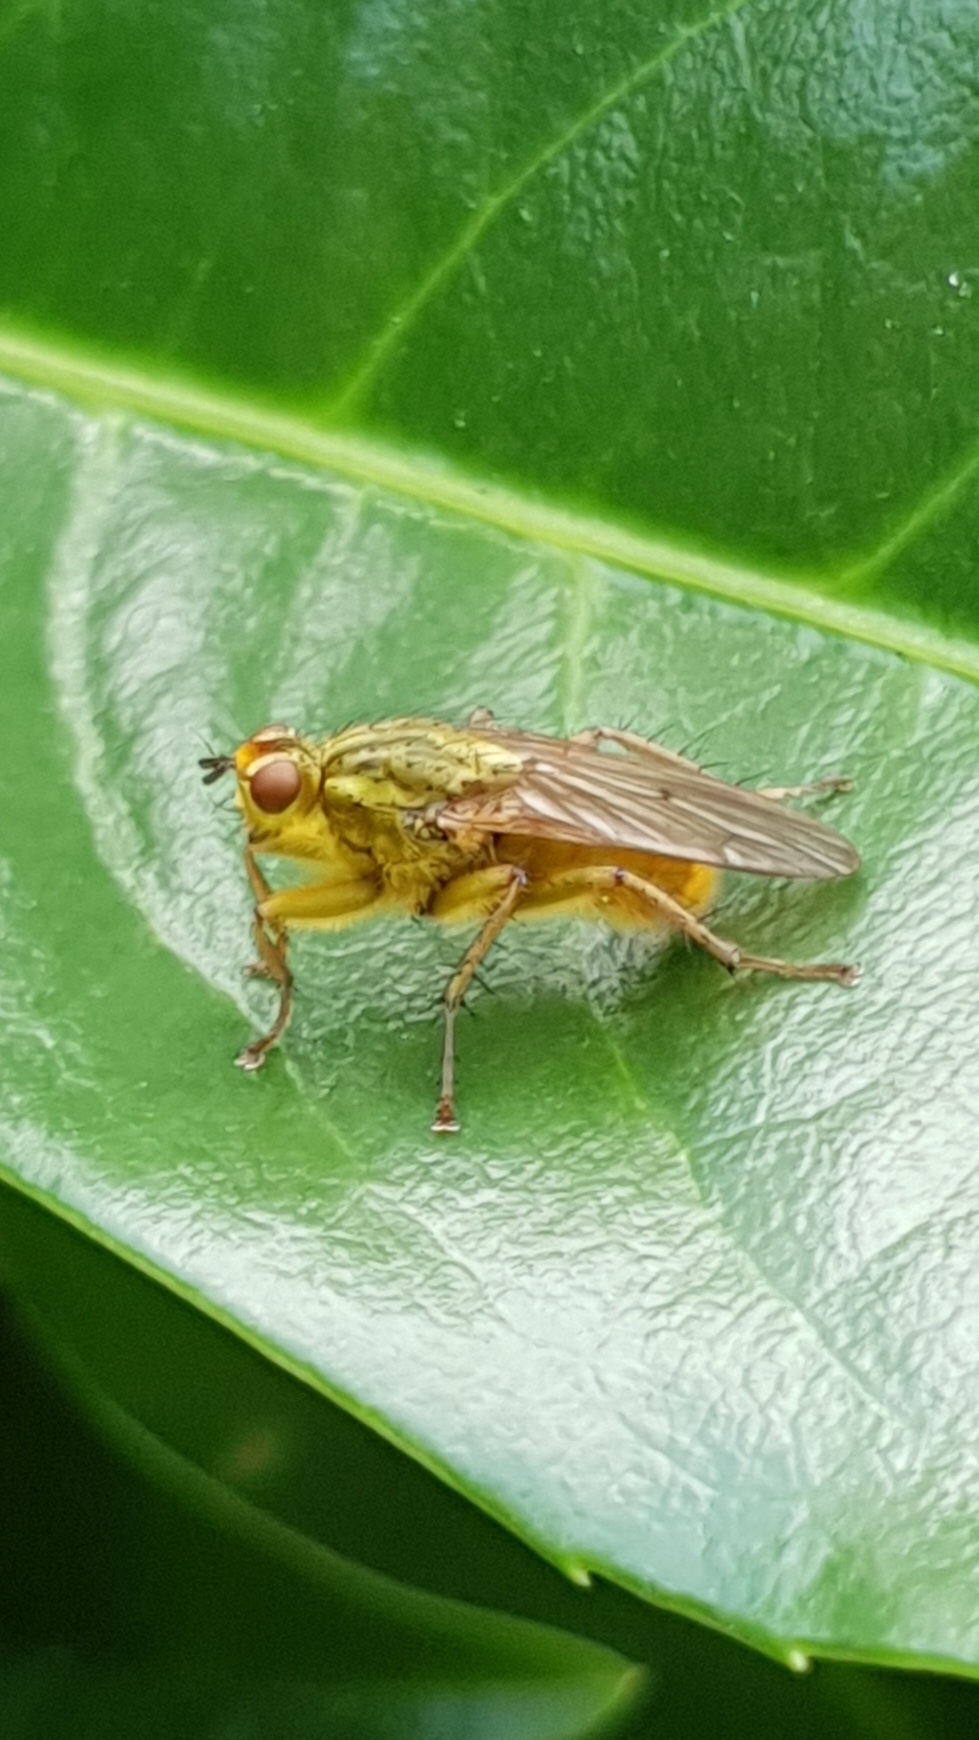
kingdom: Animalia
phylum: Arthropoda
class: Insecta
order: Diptera
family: Scathophagidae
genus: Scathophaga
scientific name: Scathophaga stercoraria
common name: Yellow dung fly
